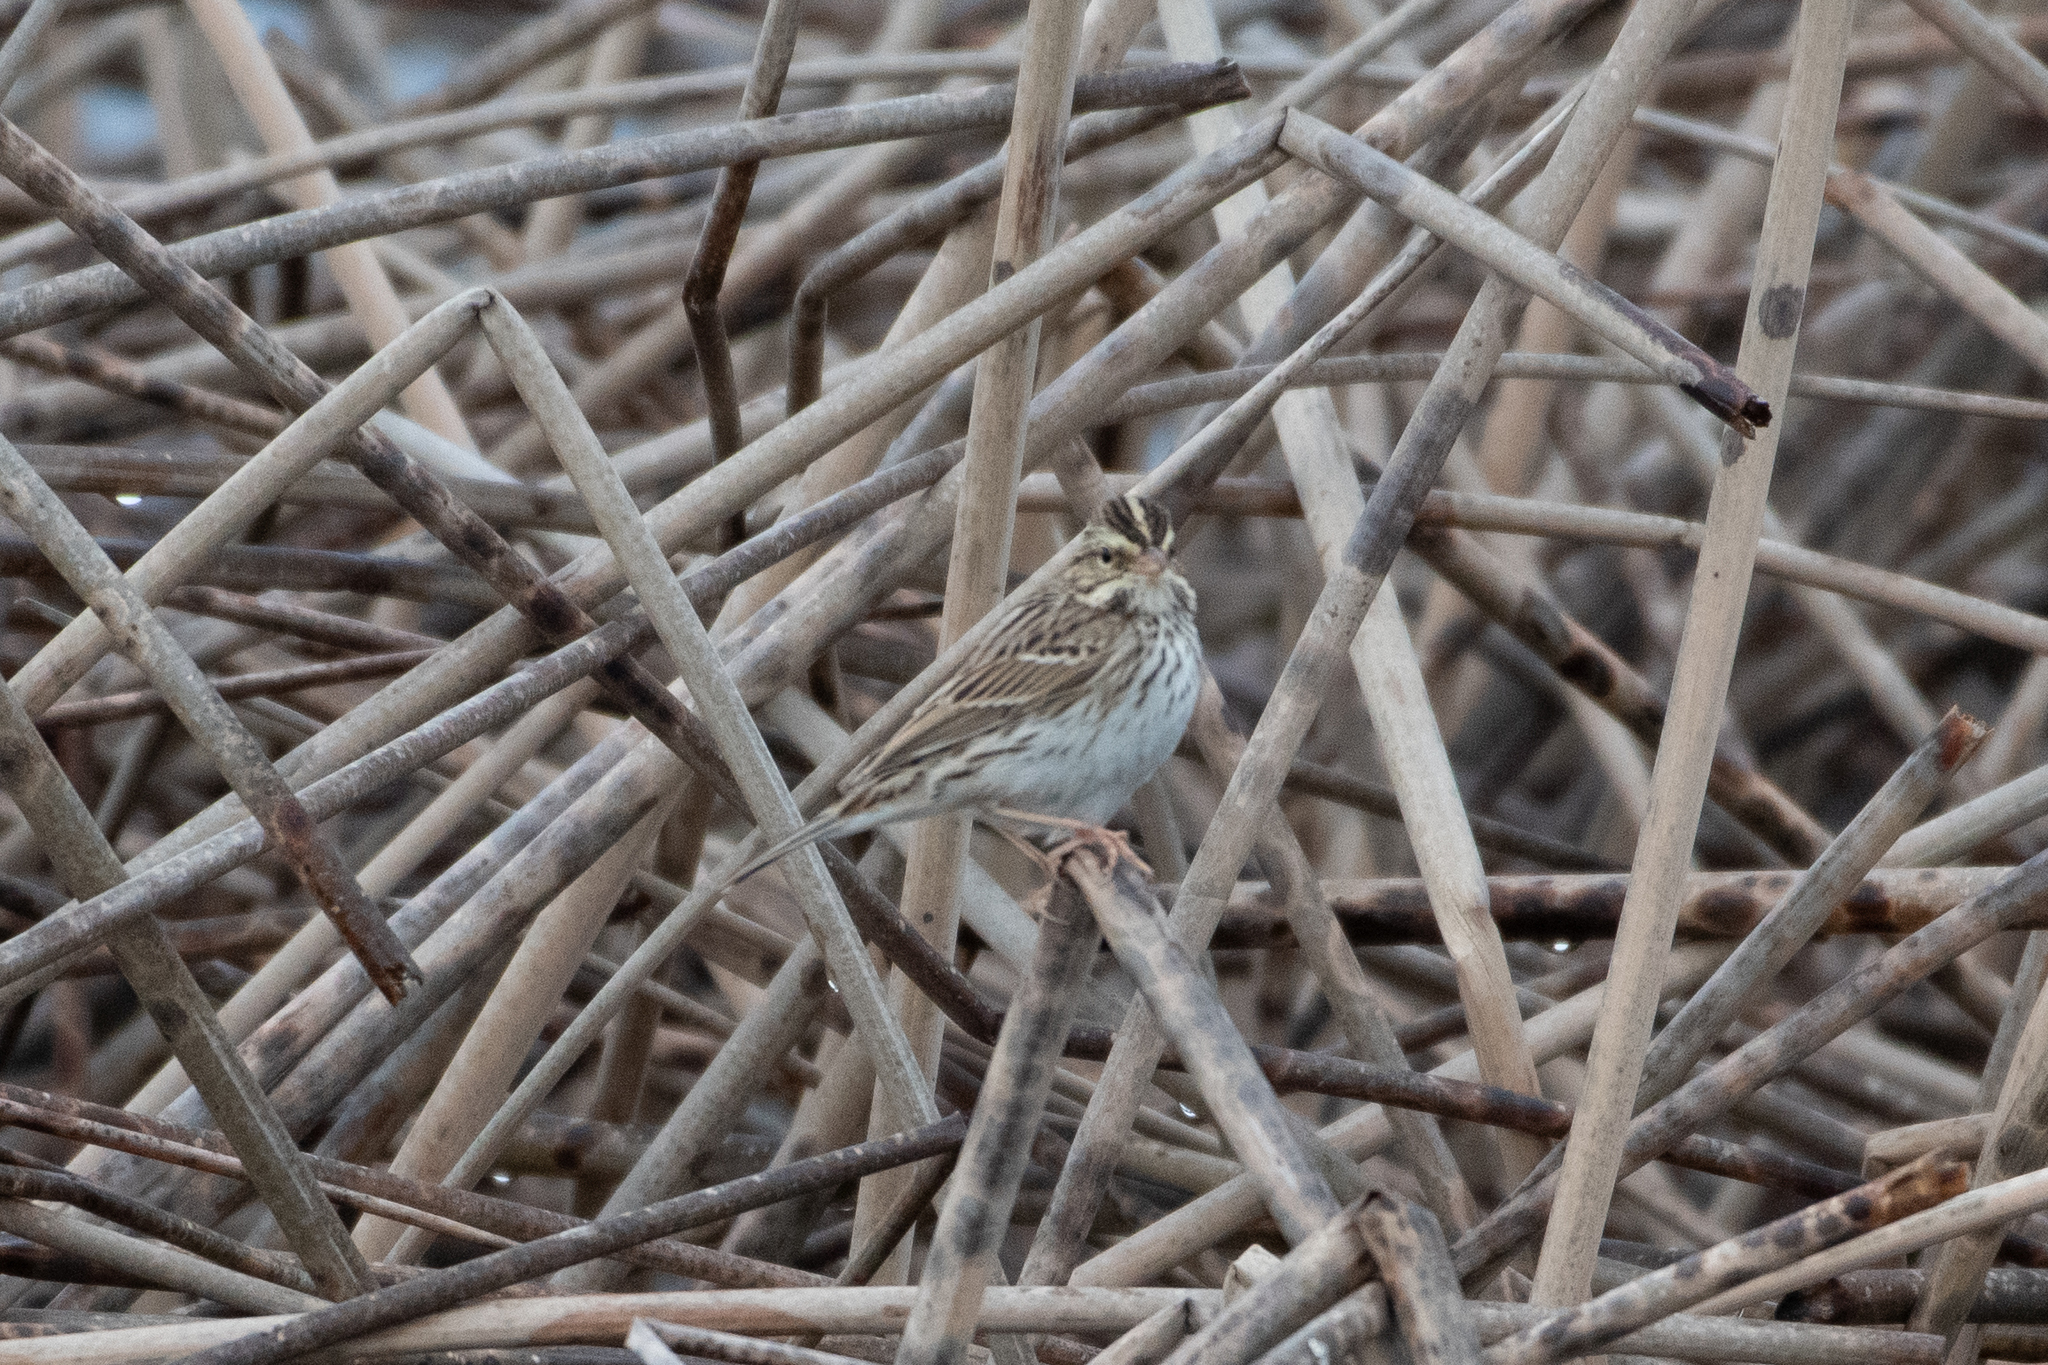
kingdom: Animalia
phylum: Chordata
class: Aves
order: Passeriformes
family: Passerellidae
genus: Passerculus
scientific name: Passerculus sandwichensis
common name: Savannah sparrow
